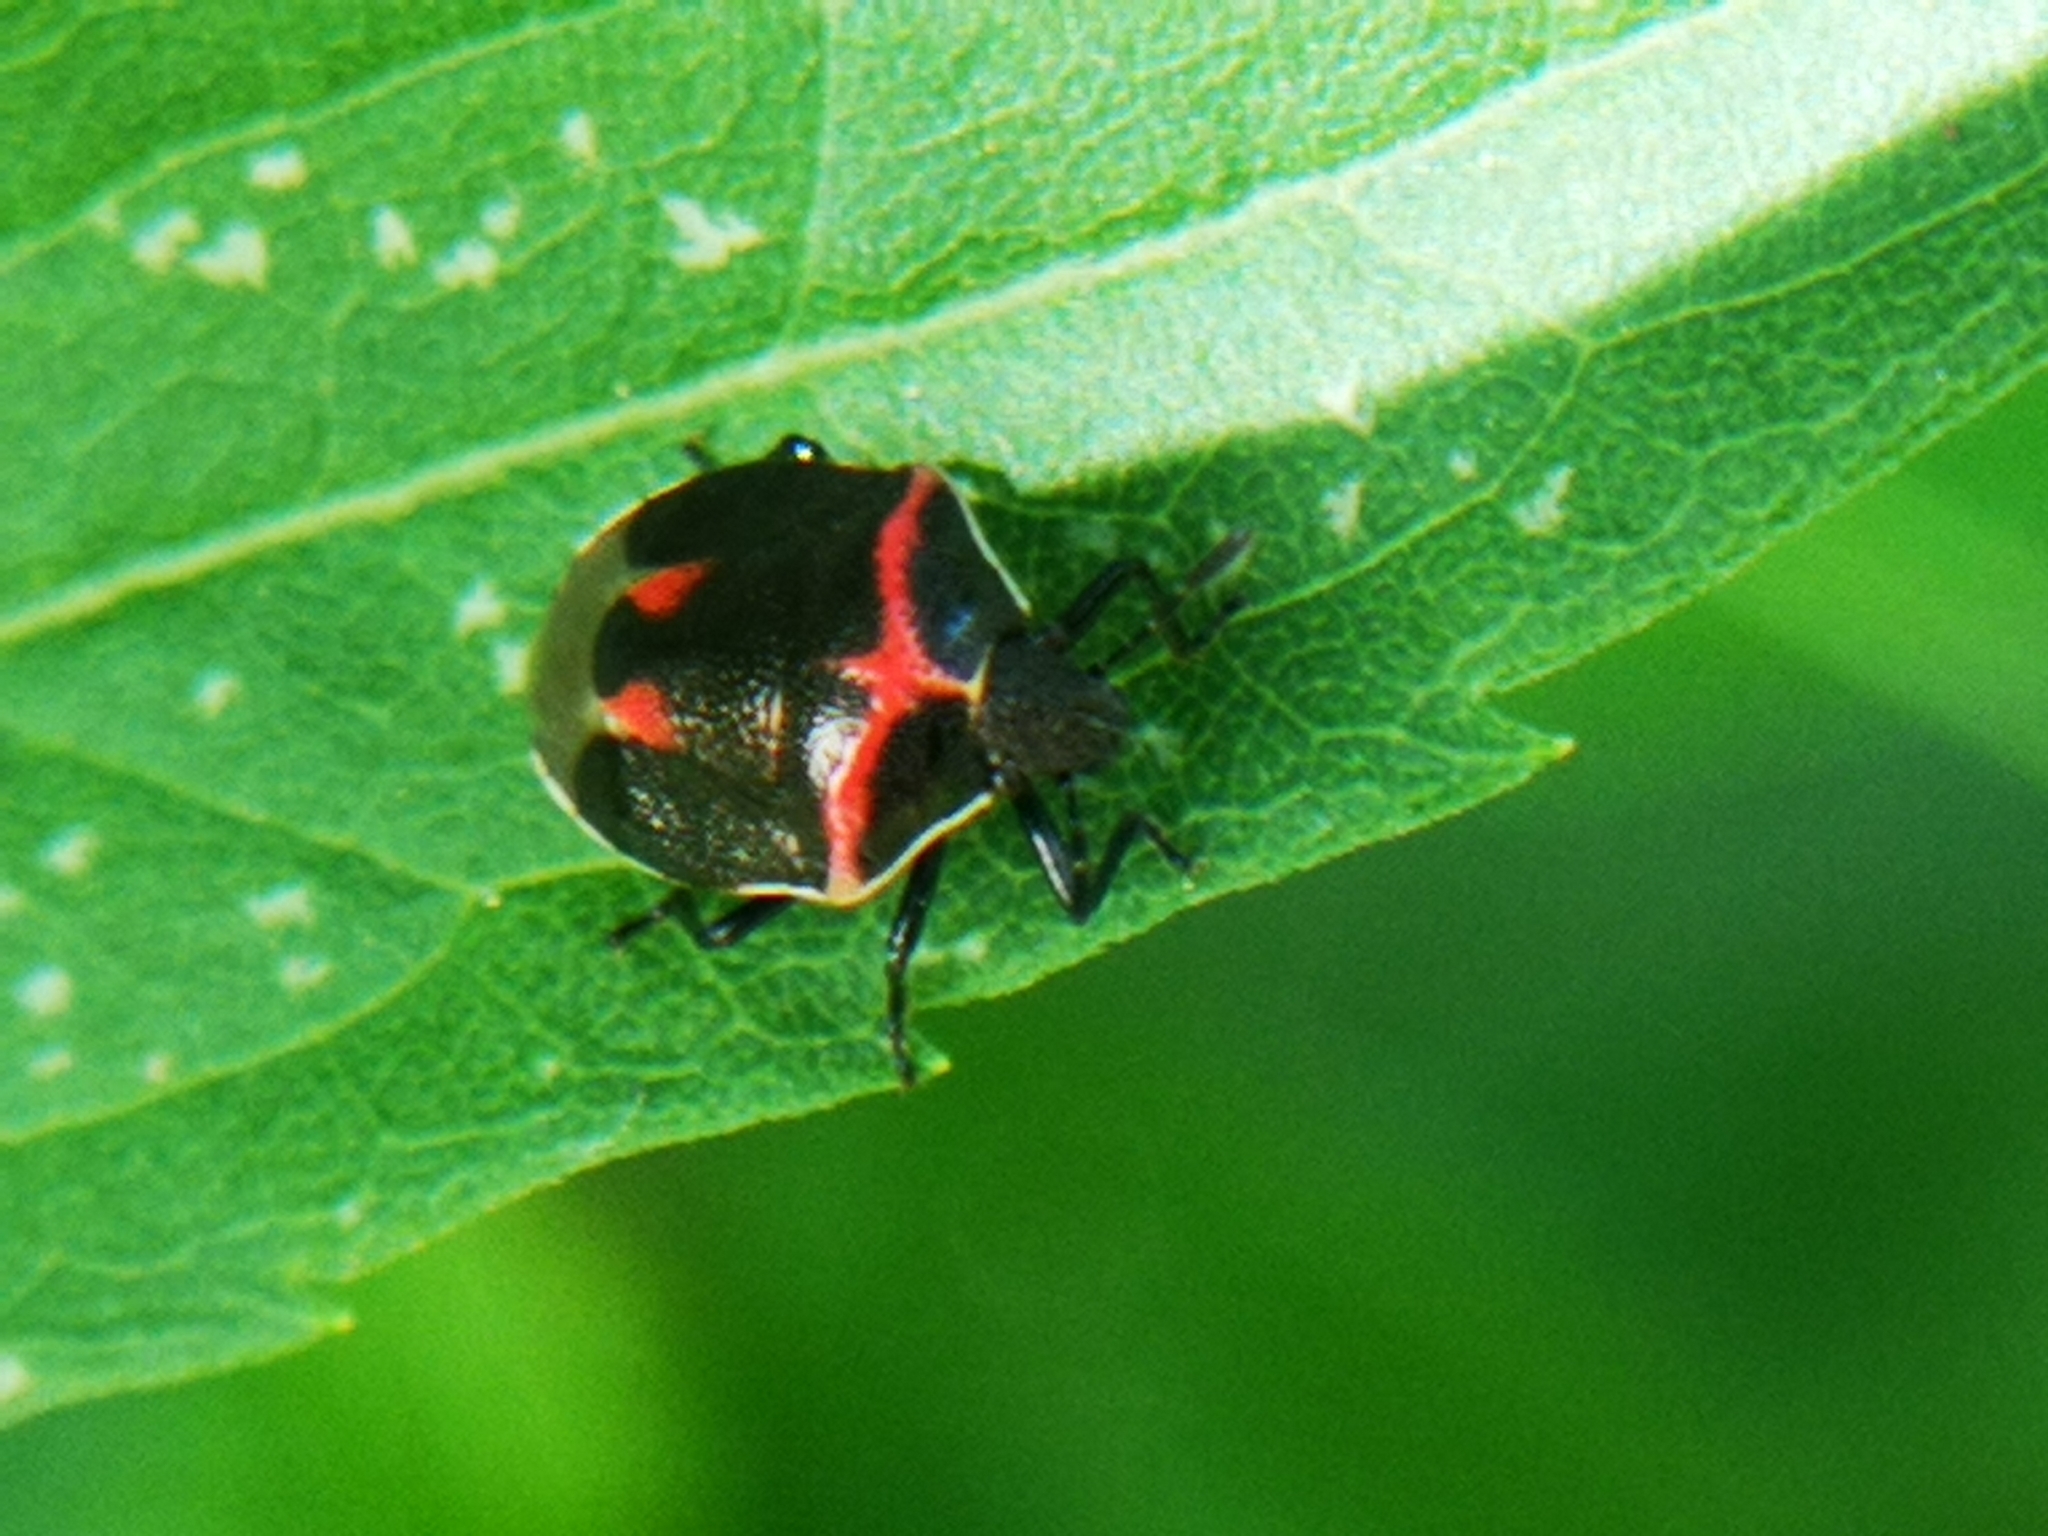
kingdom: Animalia
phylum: Arthropoda
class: Insecta
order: Hemiptera
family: Pentatomidae
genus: Cosmopepla
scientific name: Cosmopepla lintneriana
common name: Twice-stabbed stink bug
